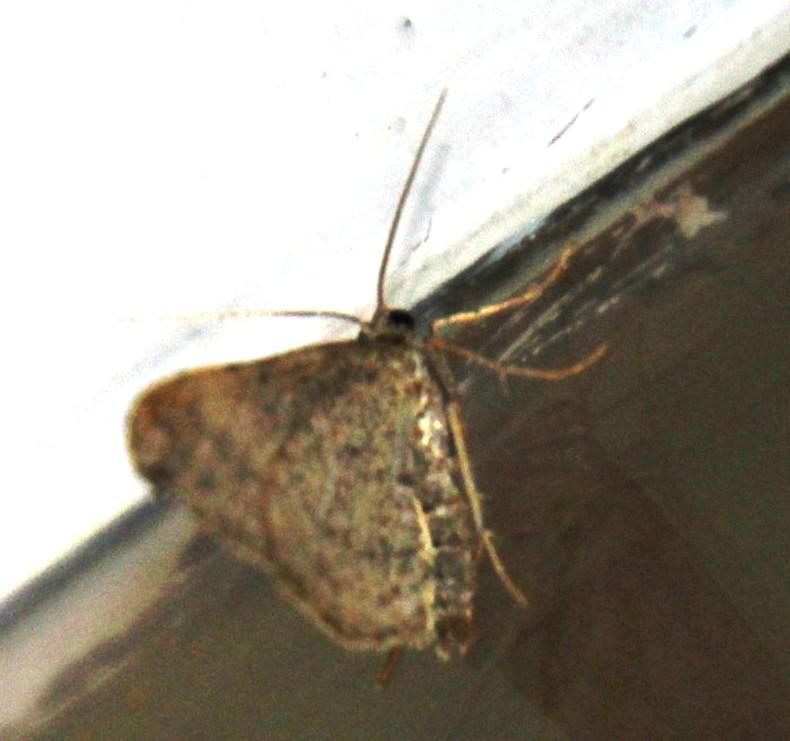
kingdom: Animalia
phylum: Arthropoda
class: Insecta
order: Lepidoptera
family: Geometridae
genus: Chiasmia
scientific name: Chiasmia inconspicua
